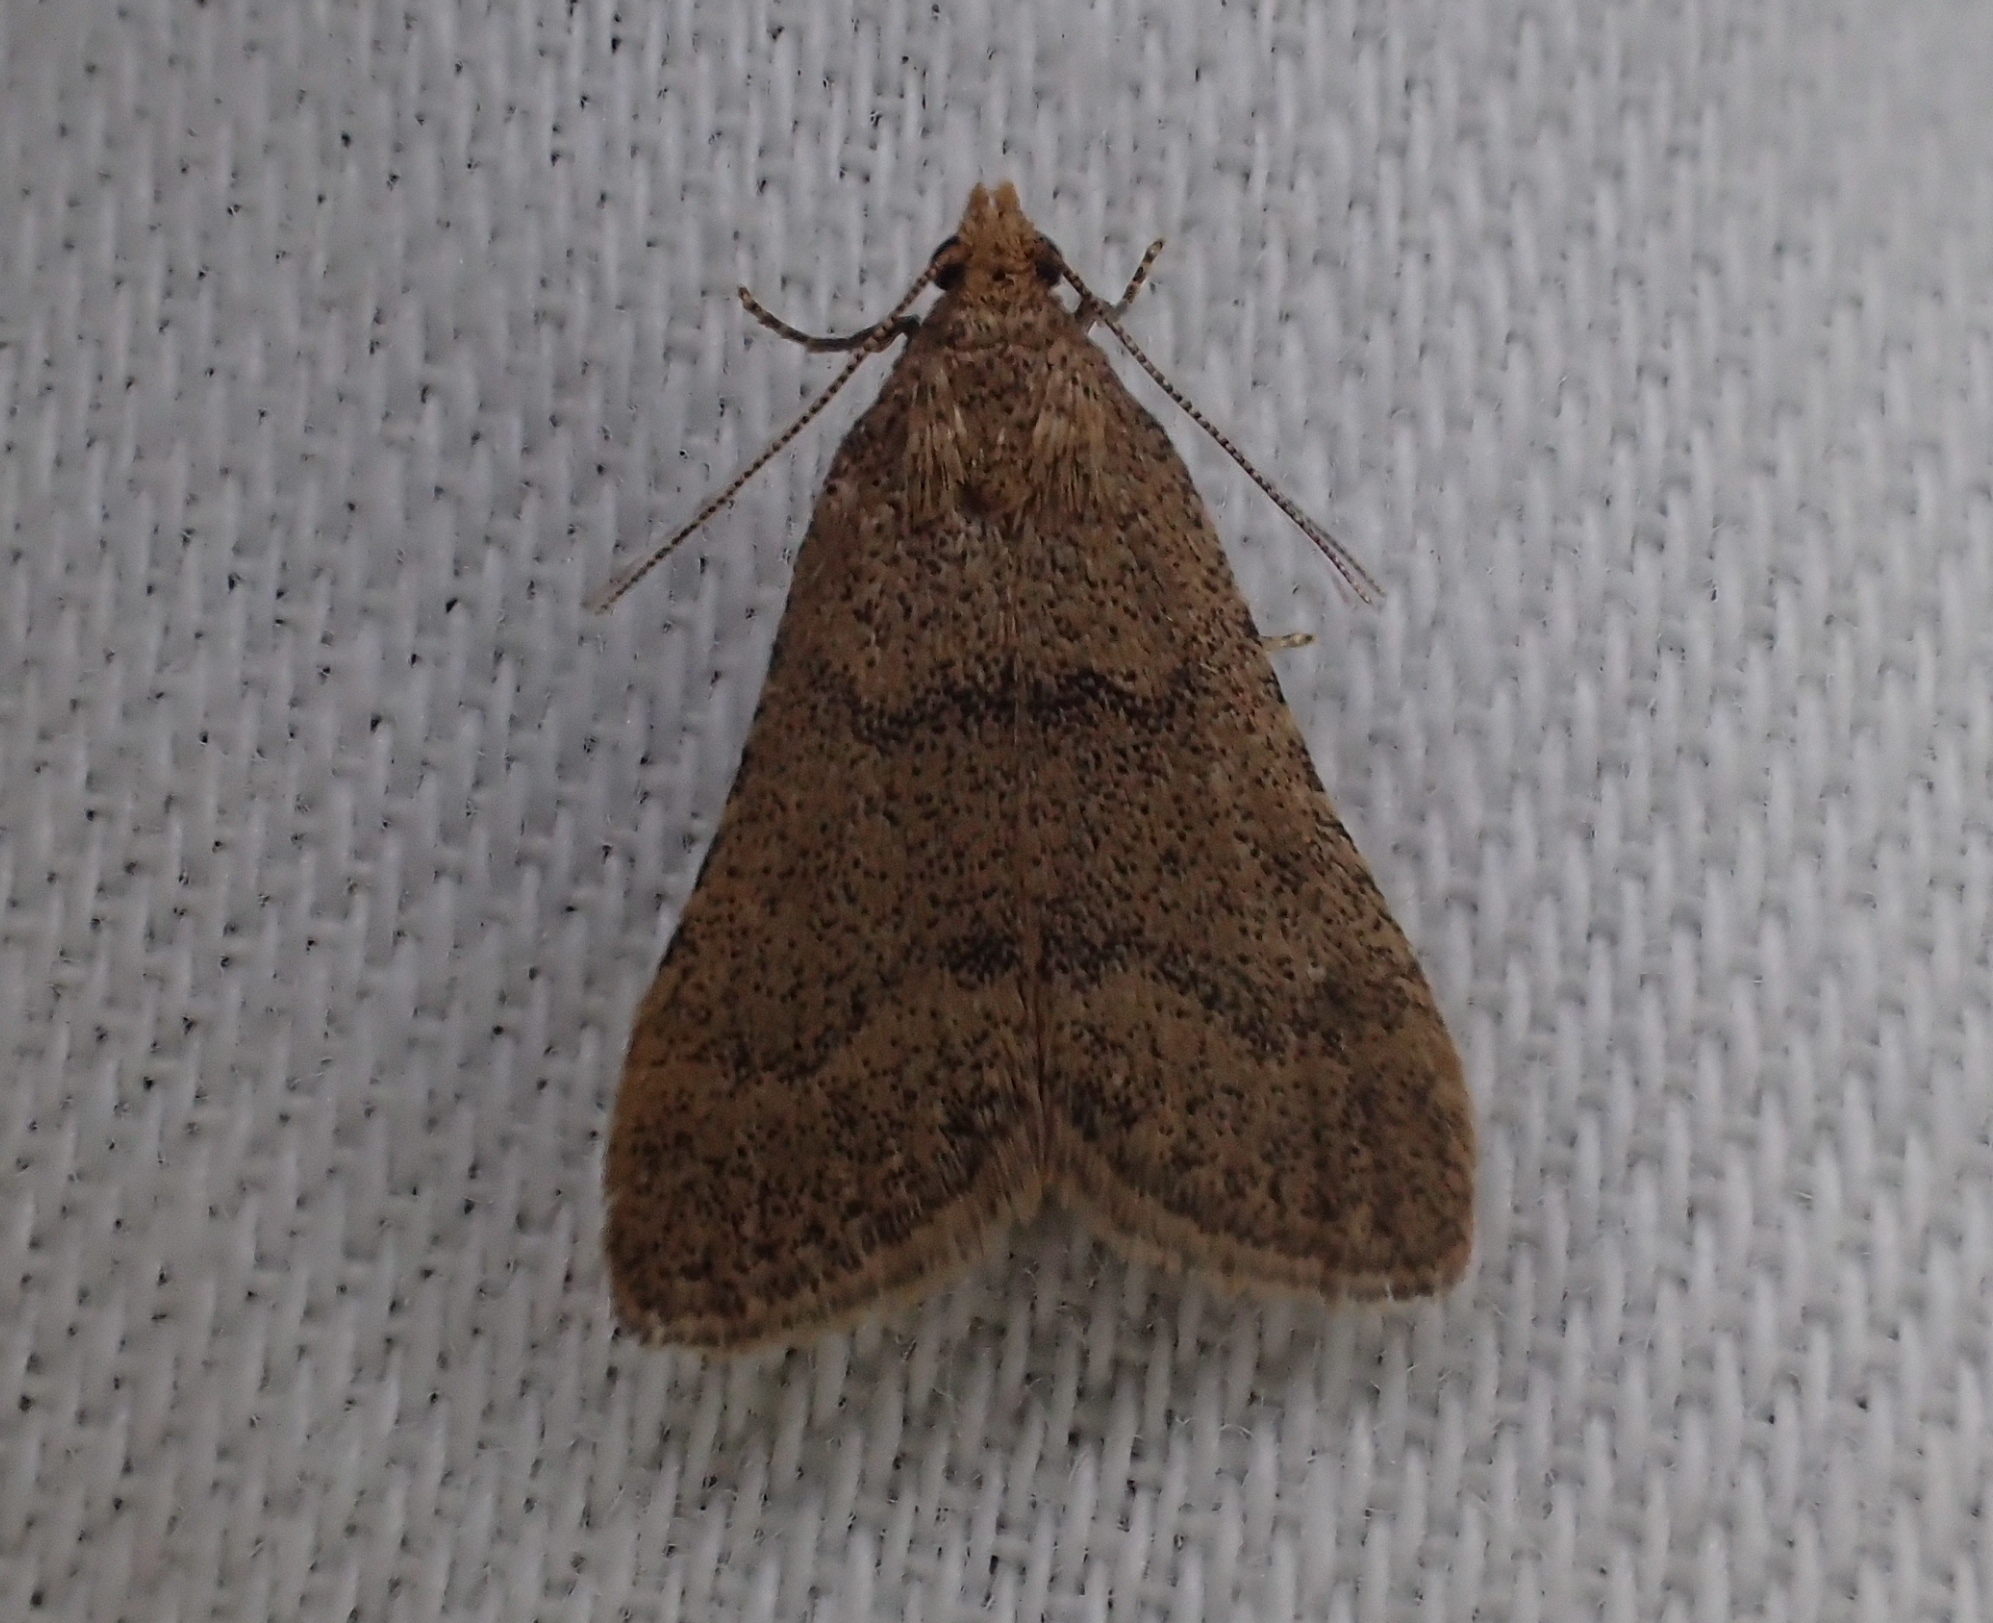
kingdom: Animalia
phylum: Arthropoda
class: Insecta
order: Lepidoptera
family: Pyralidae
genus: Bostra
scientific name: Bostra obsoletalis
